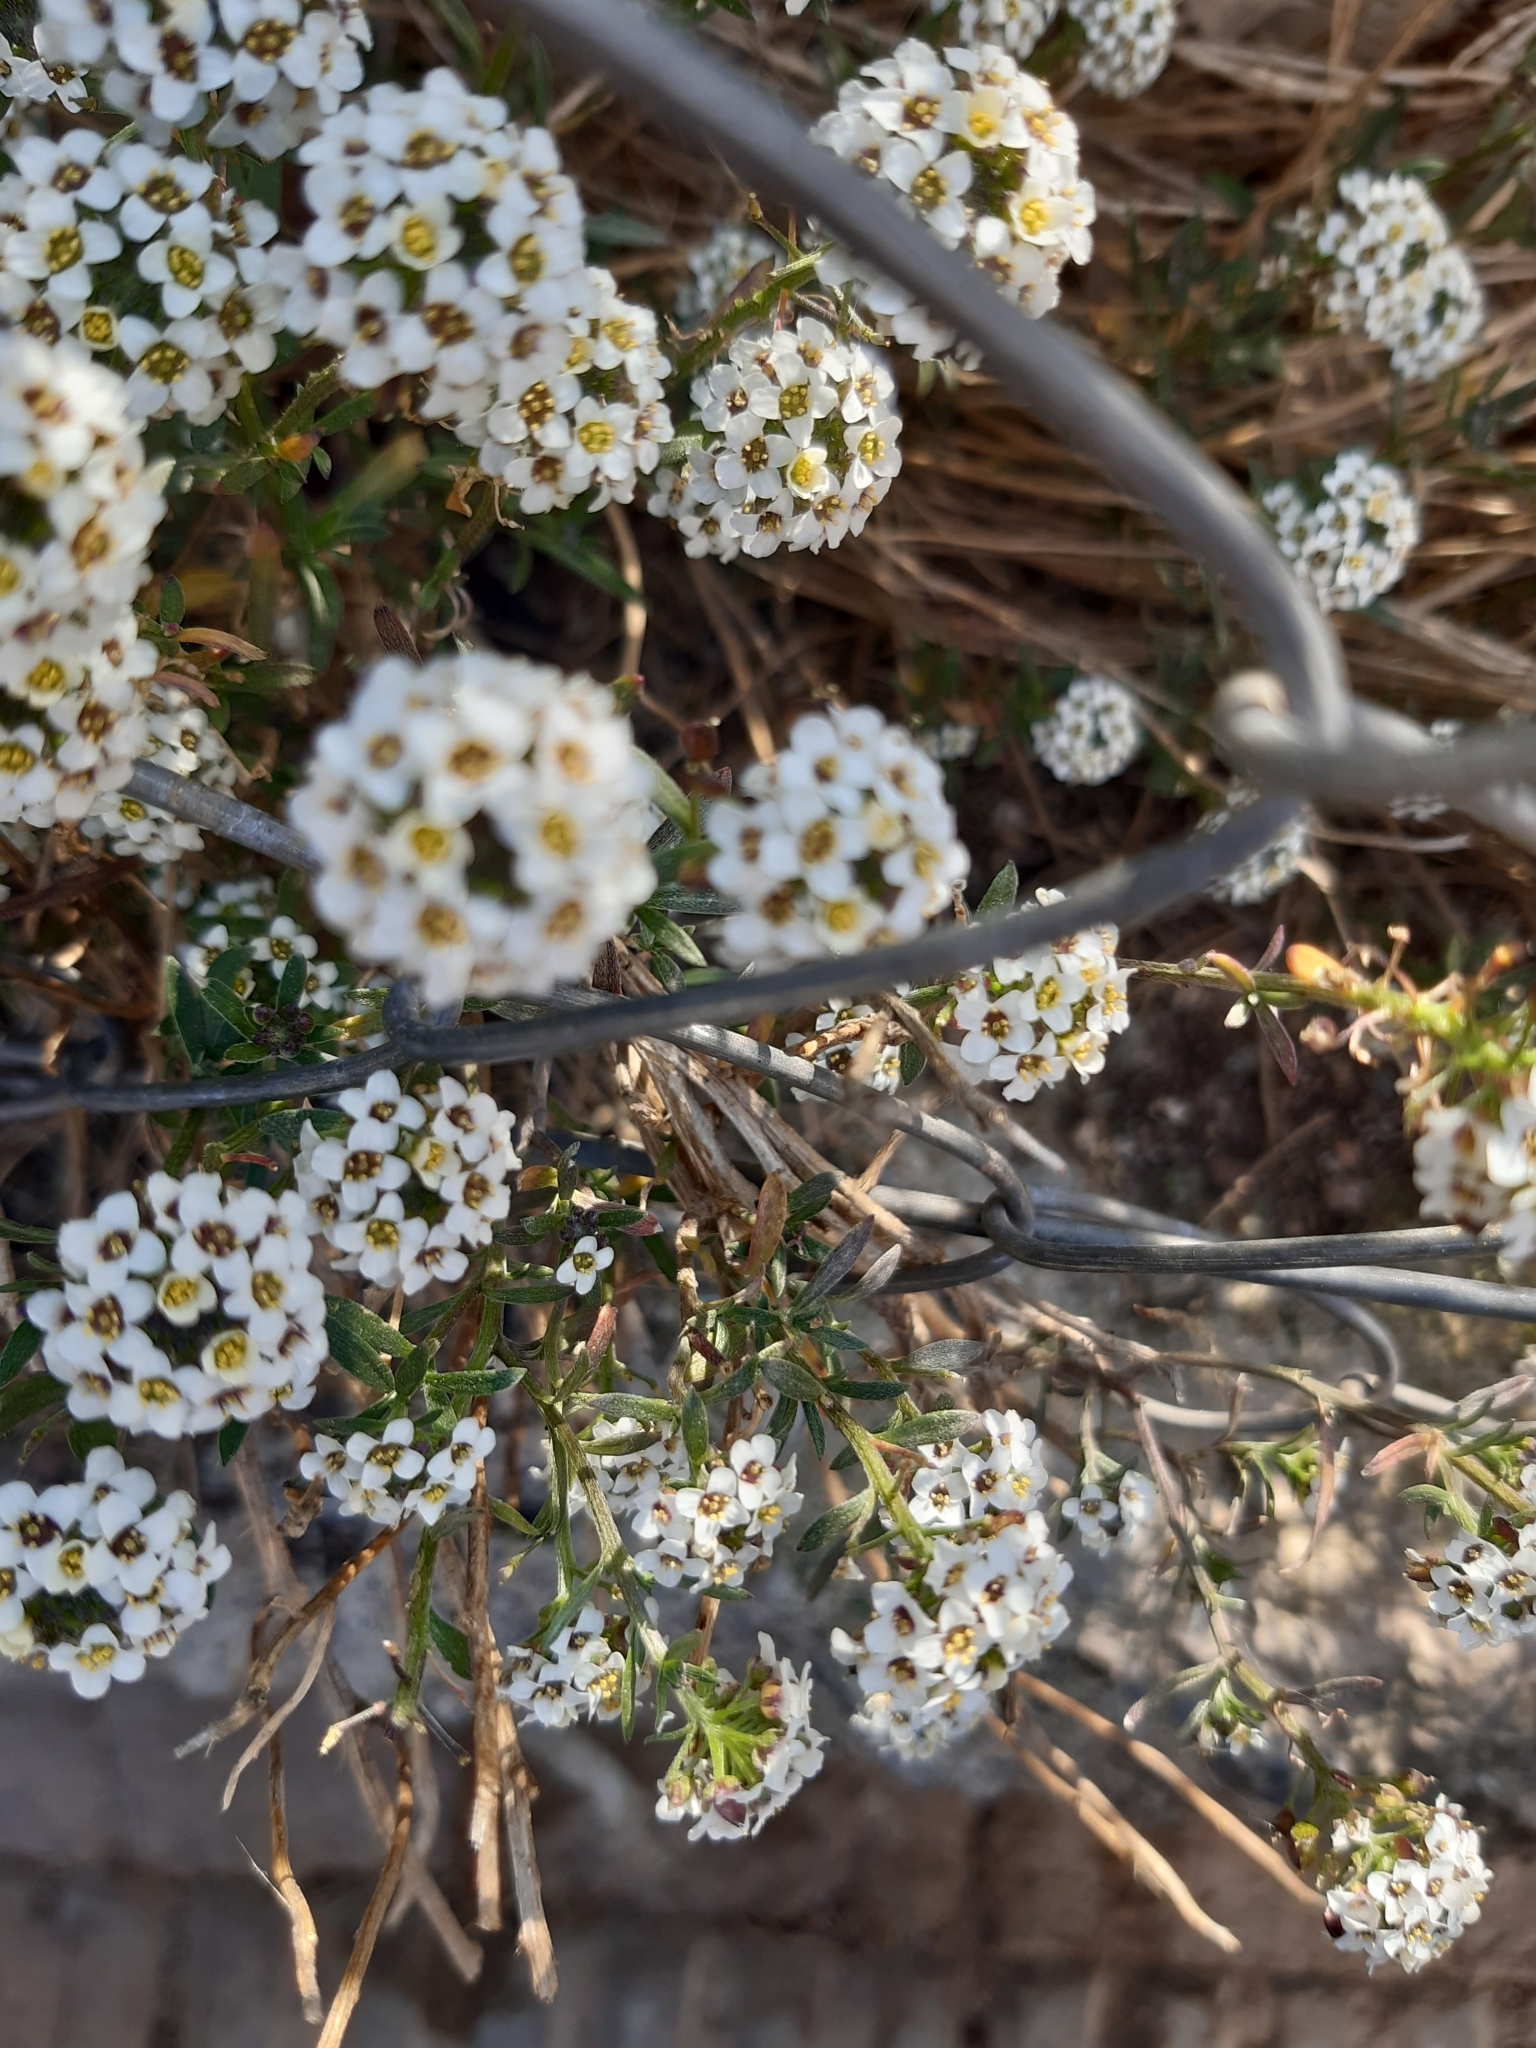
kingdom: Plantae
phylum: Tracheophyta
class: Magnoliopsida
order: Brassicales
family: Brassicaceae
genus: Lobularia
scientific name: Lobularia maritima
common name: Sweet alison
